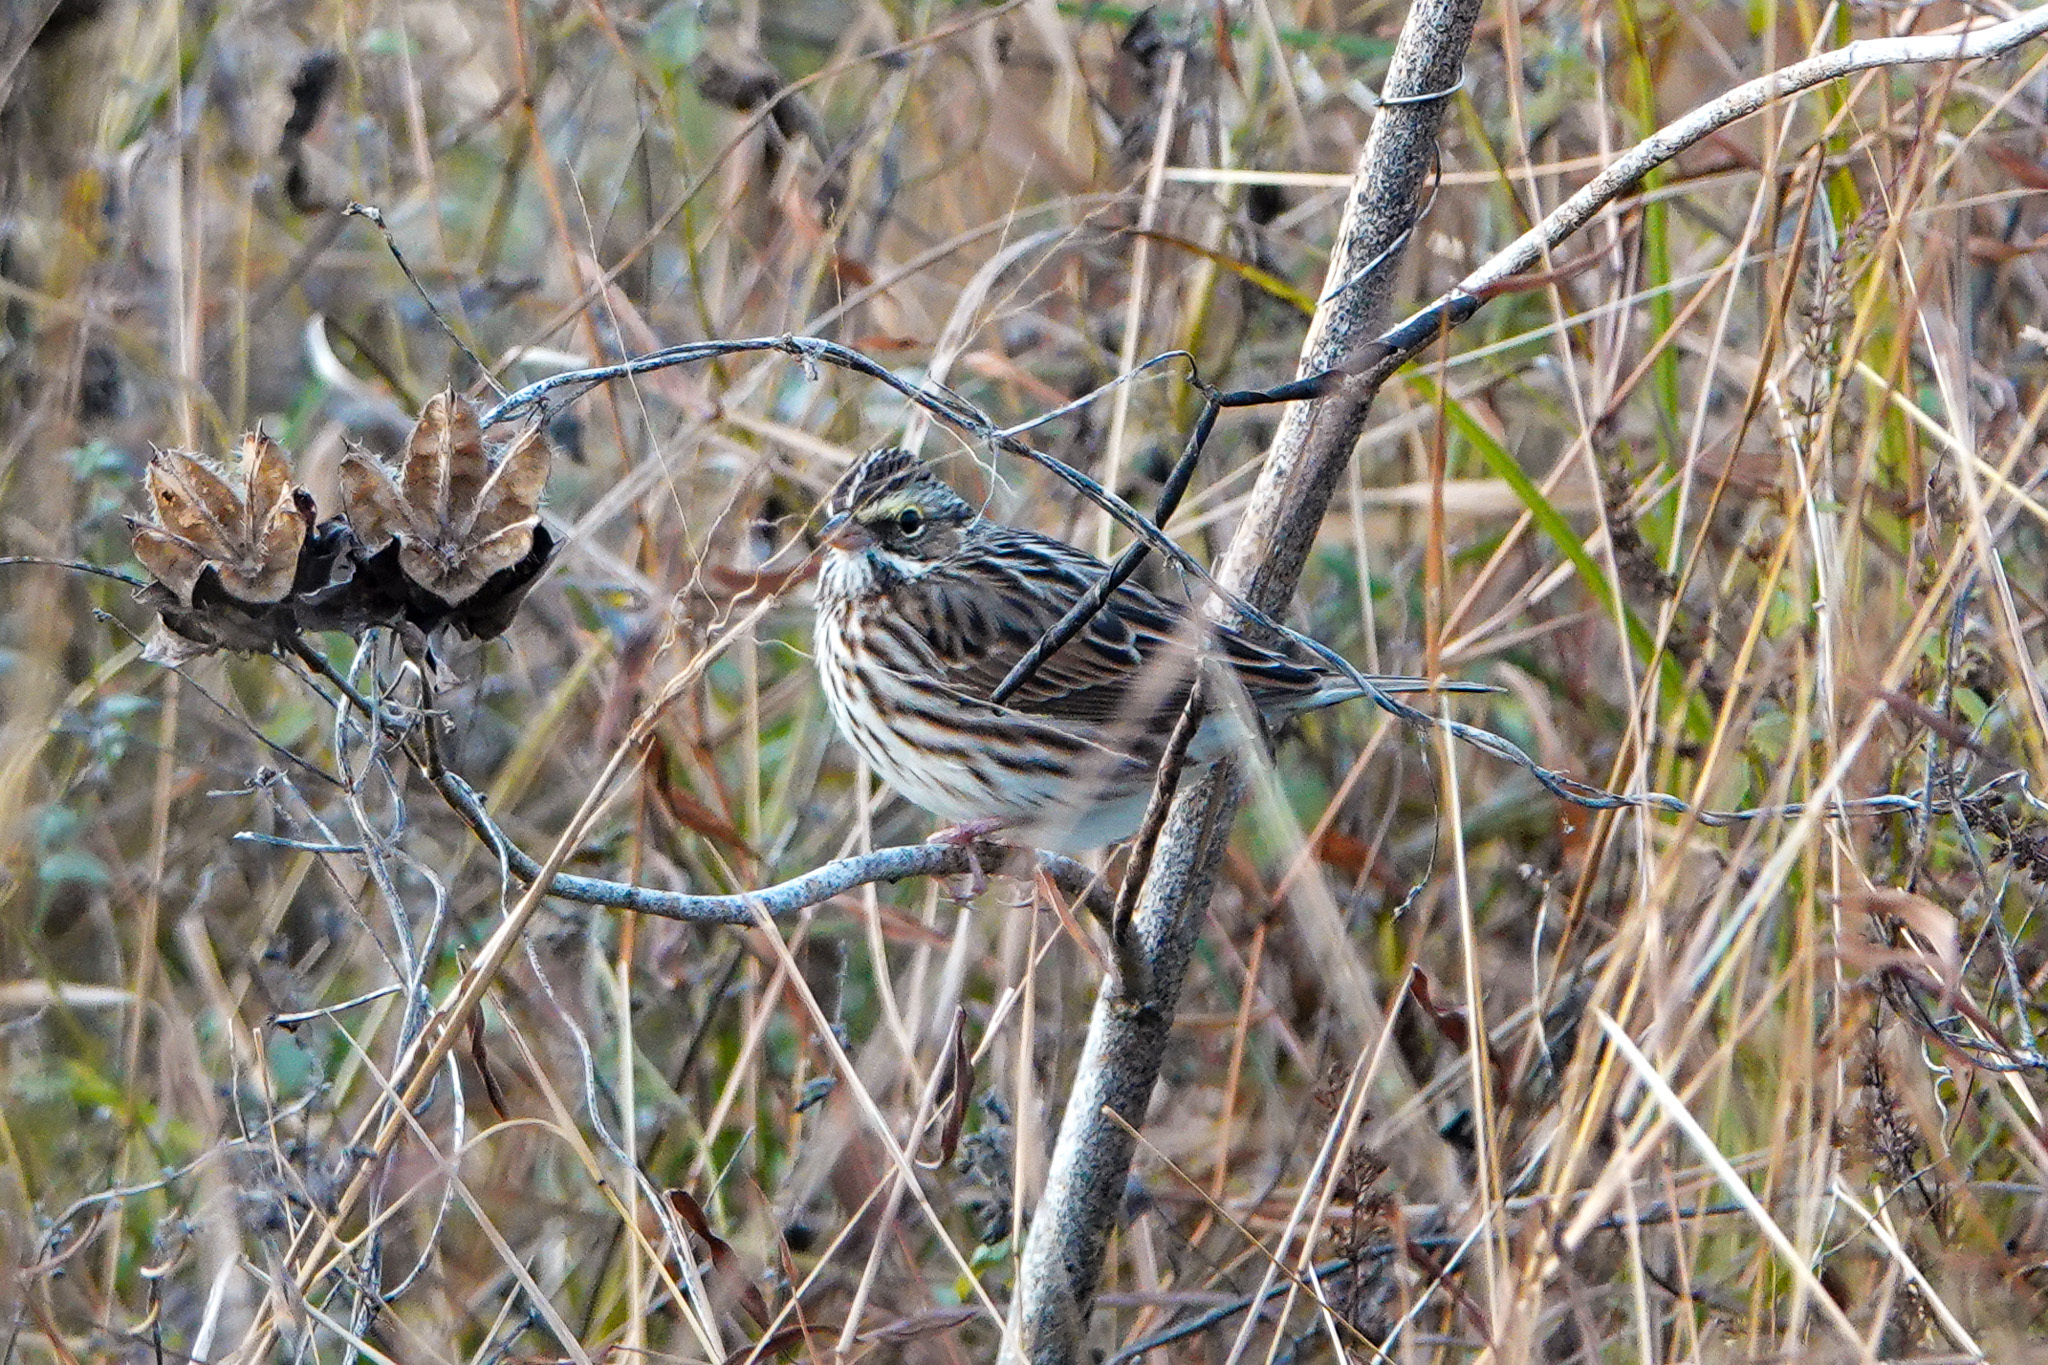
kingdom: Animalia
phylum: Chordata
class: Aves
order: Passeriformes
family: Passerellidae
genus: Passerculus
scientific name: Passerculus sandwichensis
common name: Savannah sparrow
